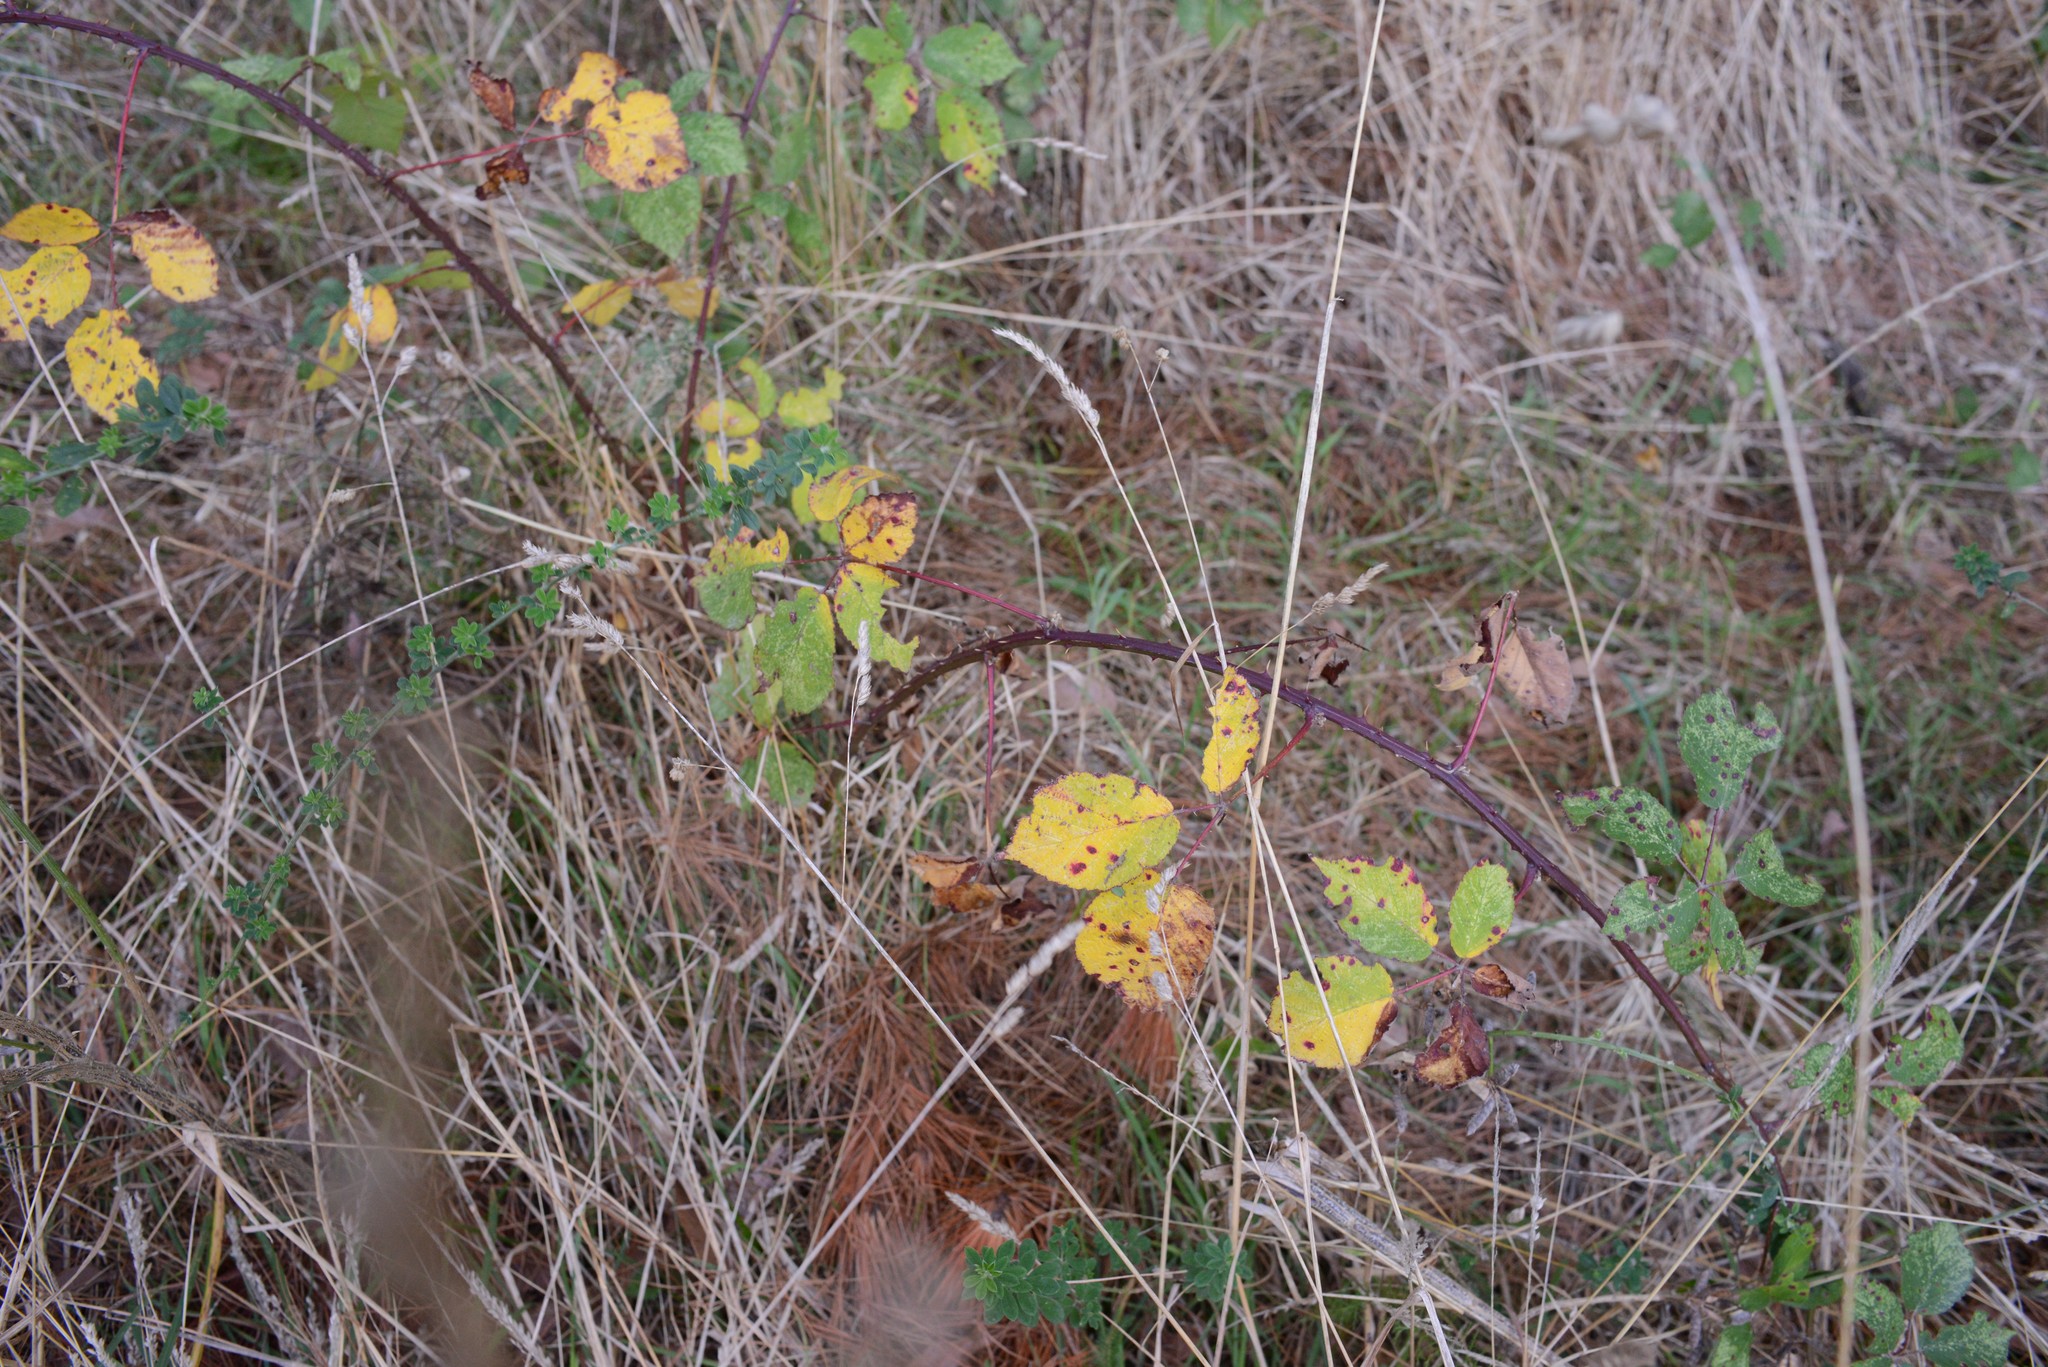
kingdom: Plantae
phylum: Tracheophyta
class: Magnoliopsida
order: Rosales
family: Rosaceae
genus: Rubus
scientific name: Rubus
